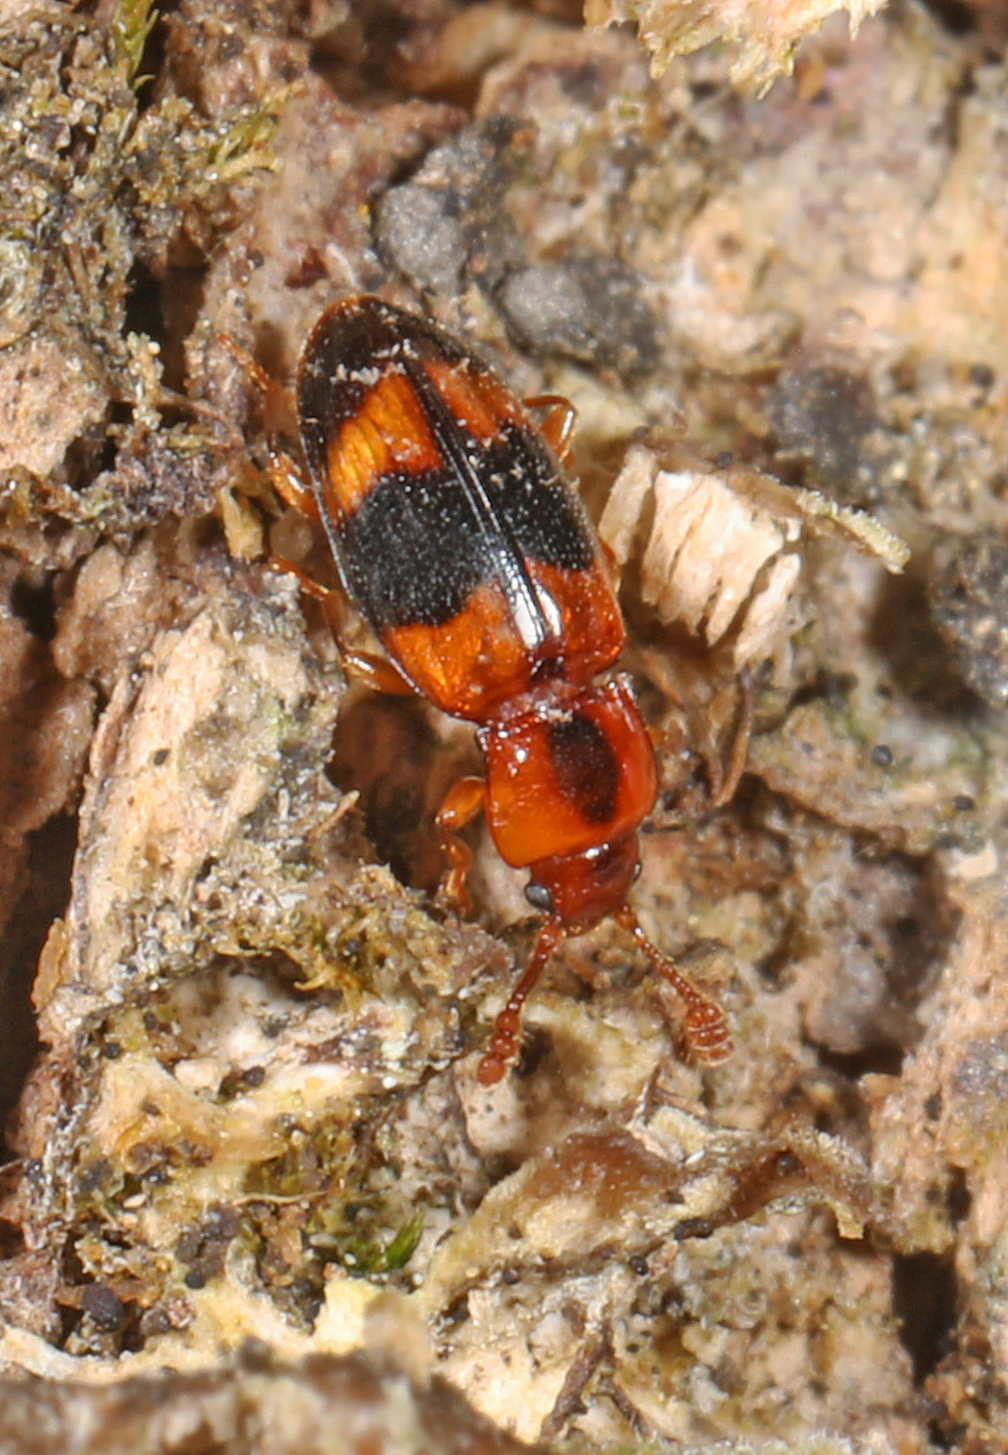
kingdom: Animalia
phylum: Arthropoda
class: Insecta
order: Coleoptera
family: Endomychidae
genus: Phymaphora
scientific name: Phymaphora pulchella
